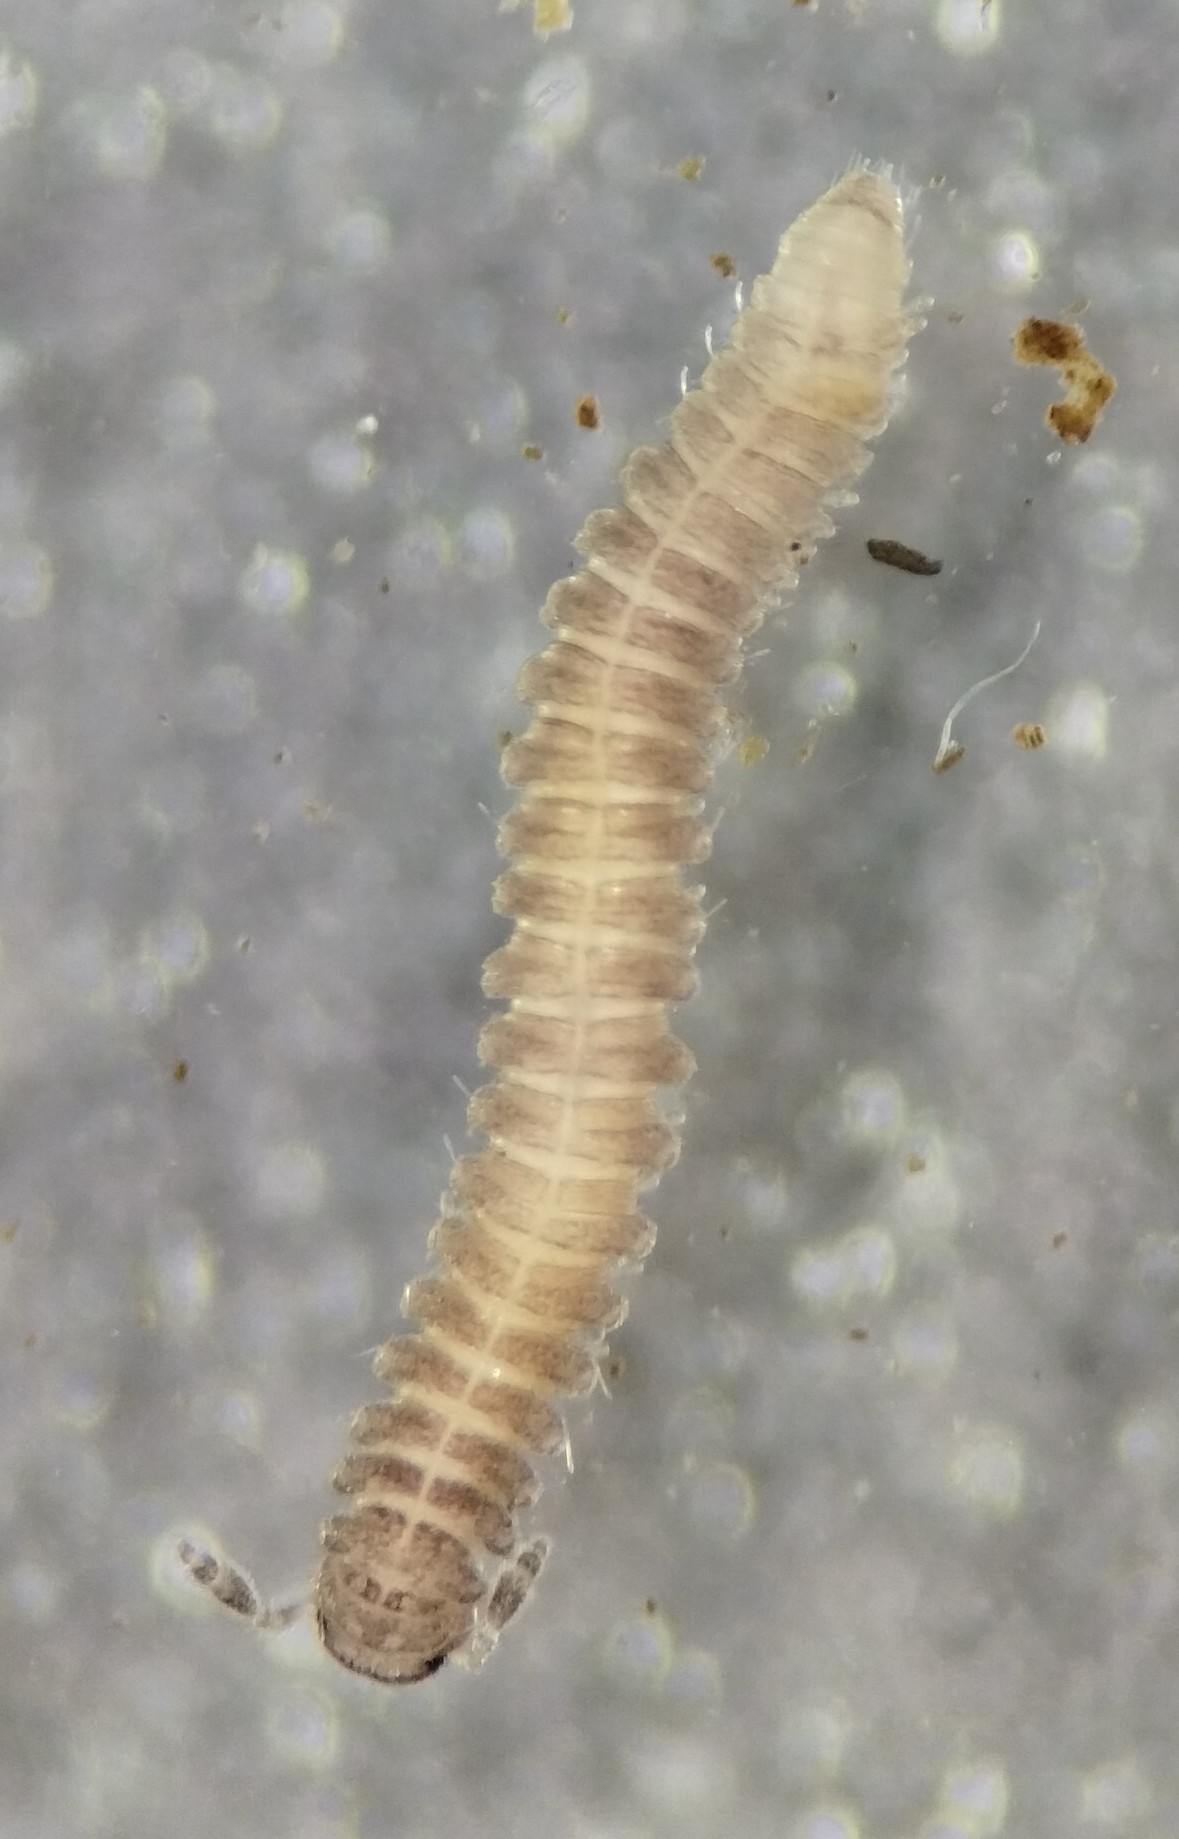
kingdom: Animalia
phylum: Arthropoda
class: Diplopoda
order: Chordeumatida
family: Branneriidae
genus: Branneria
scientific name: Branneria carinata
